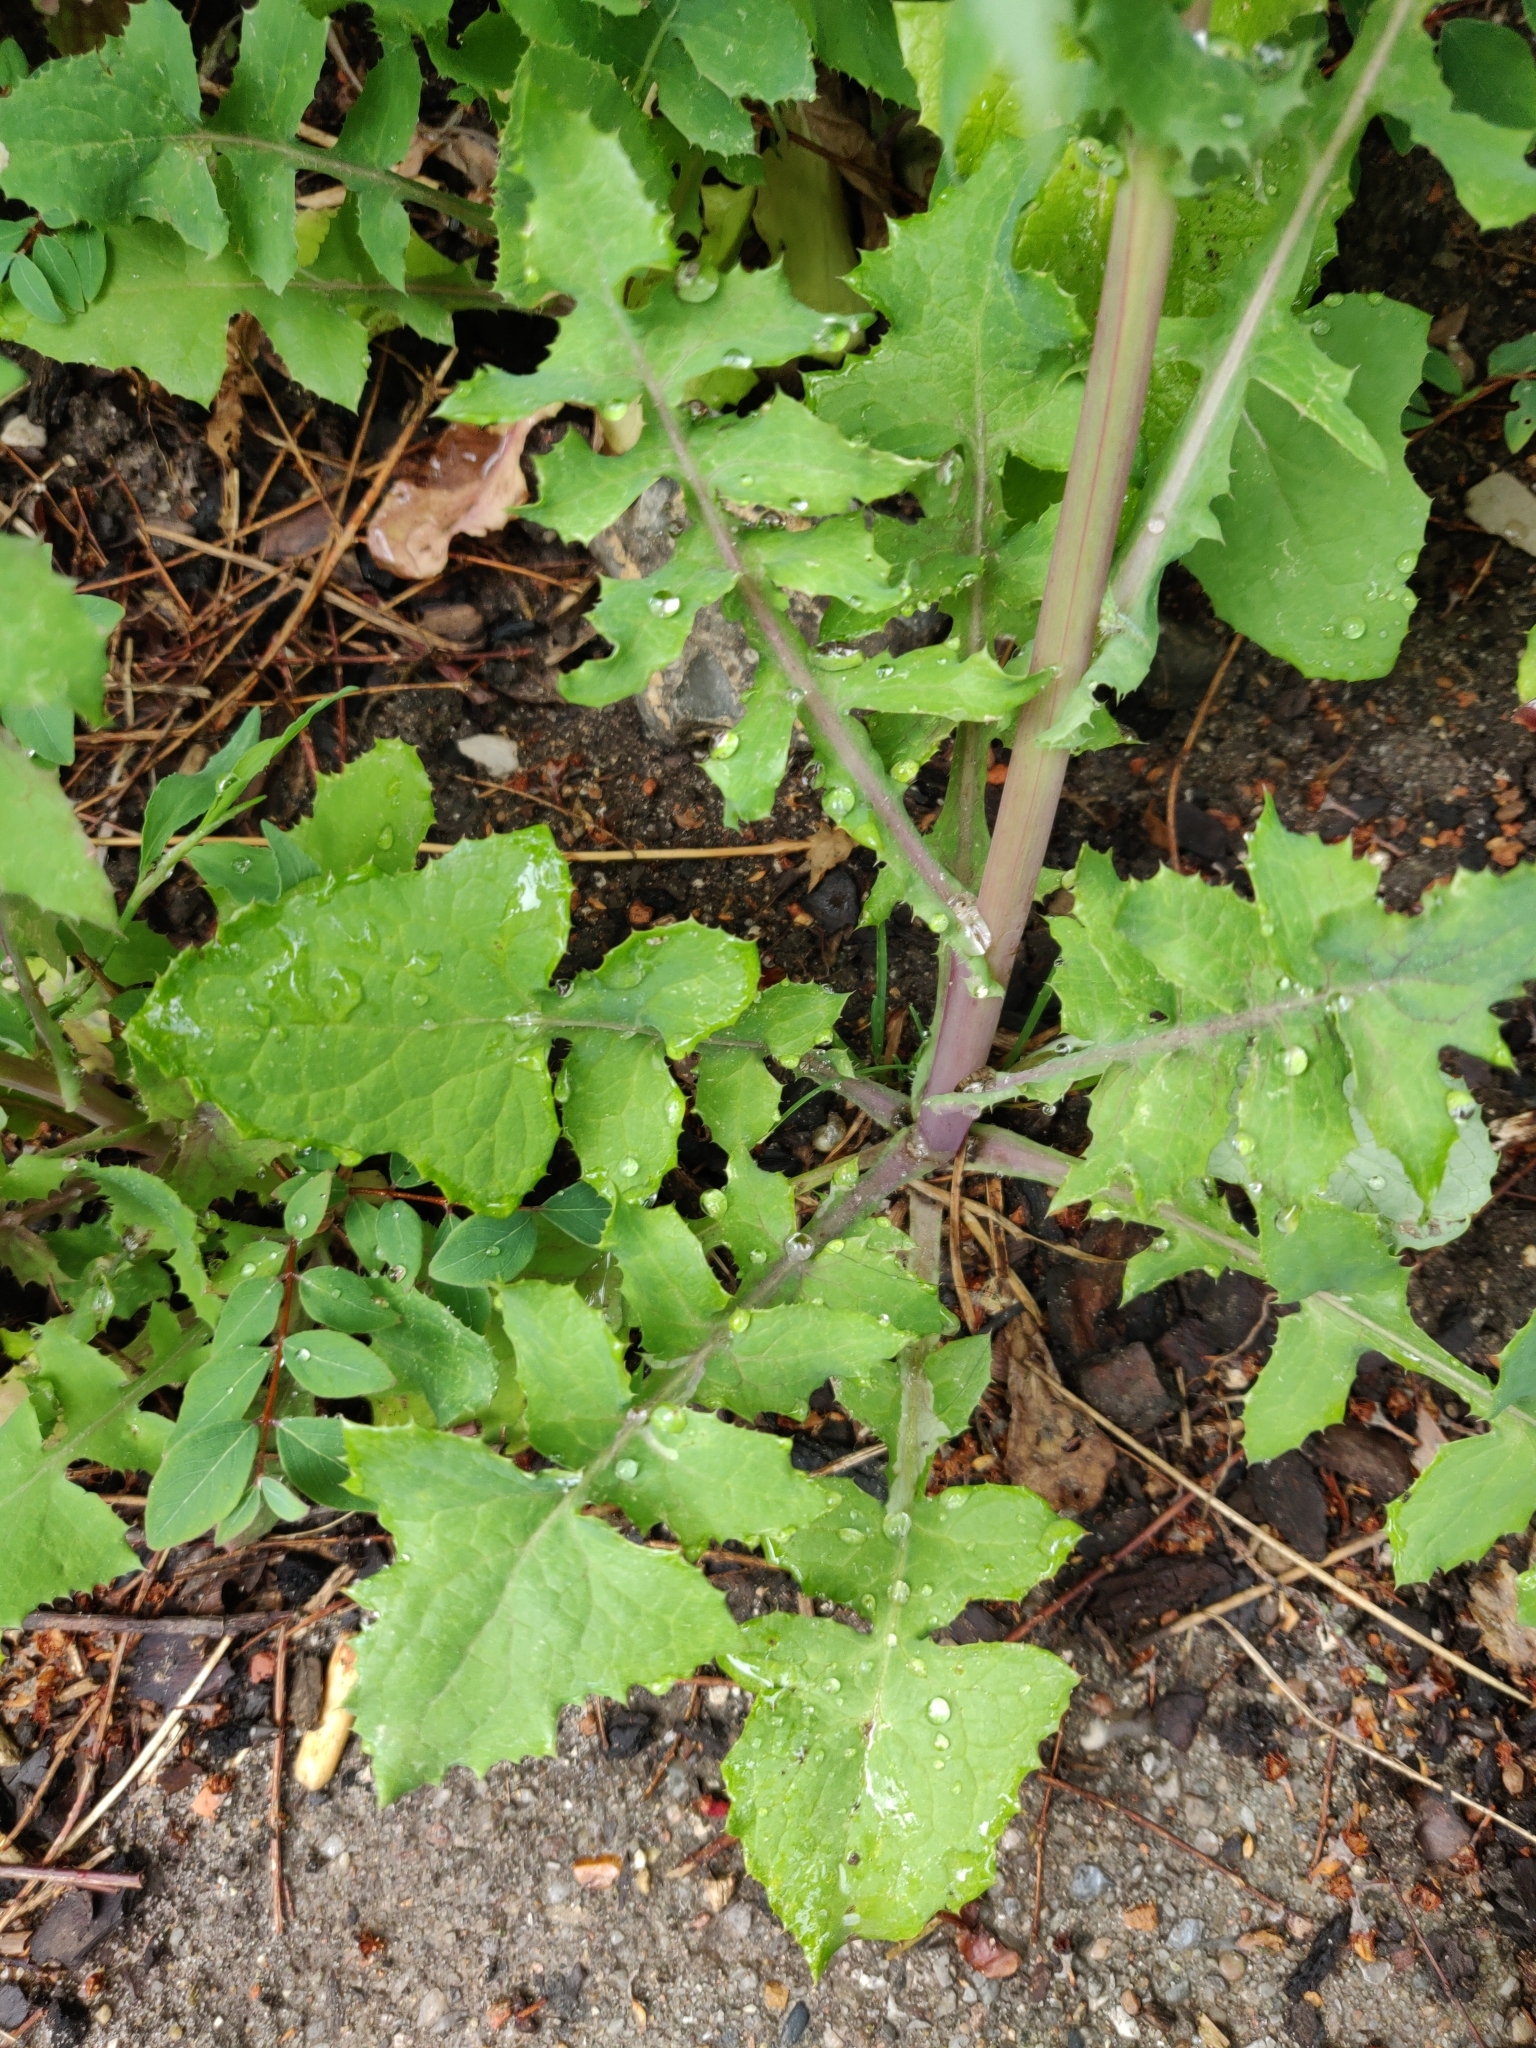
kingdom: Plantae
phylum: Tracheophyta
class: Magnoliopsida
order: Asterales
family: Asteraceae
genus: Sonchus
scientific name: Sonchus oleraceus
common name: Common sowthistle
